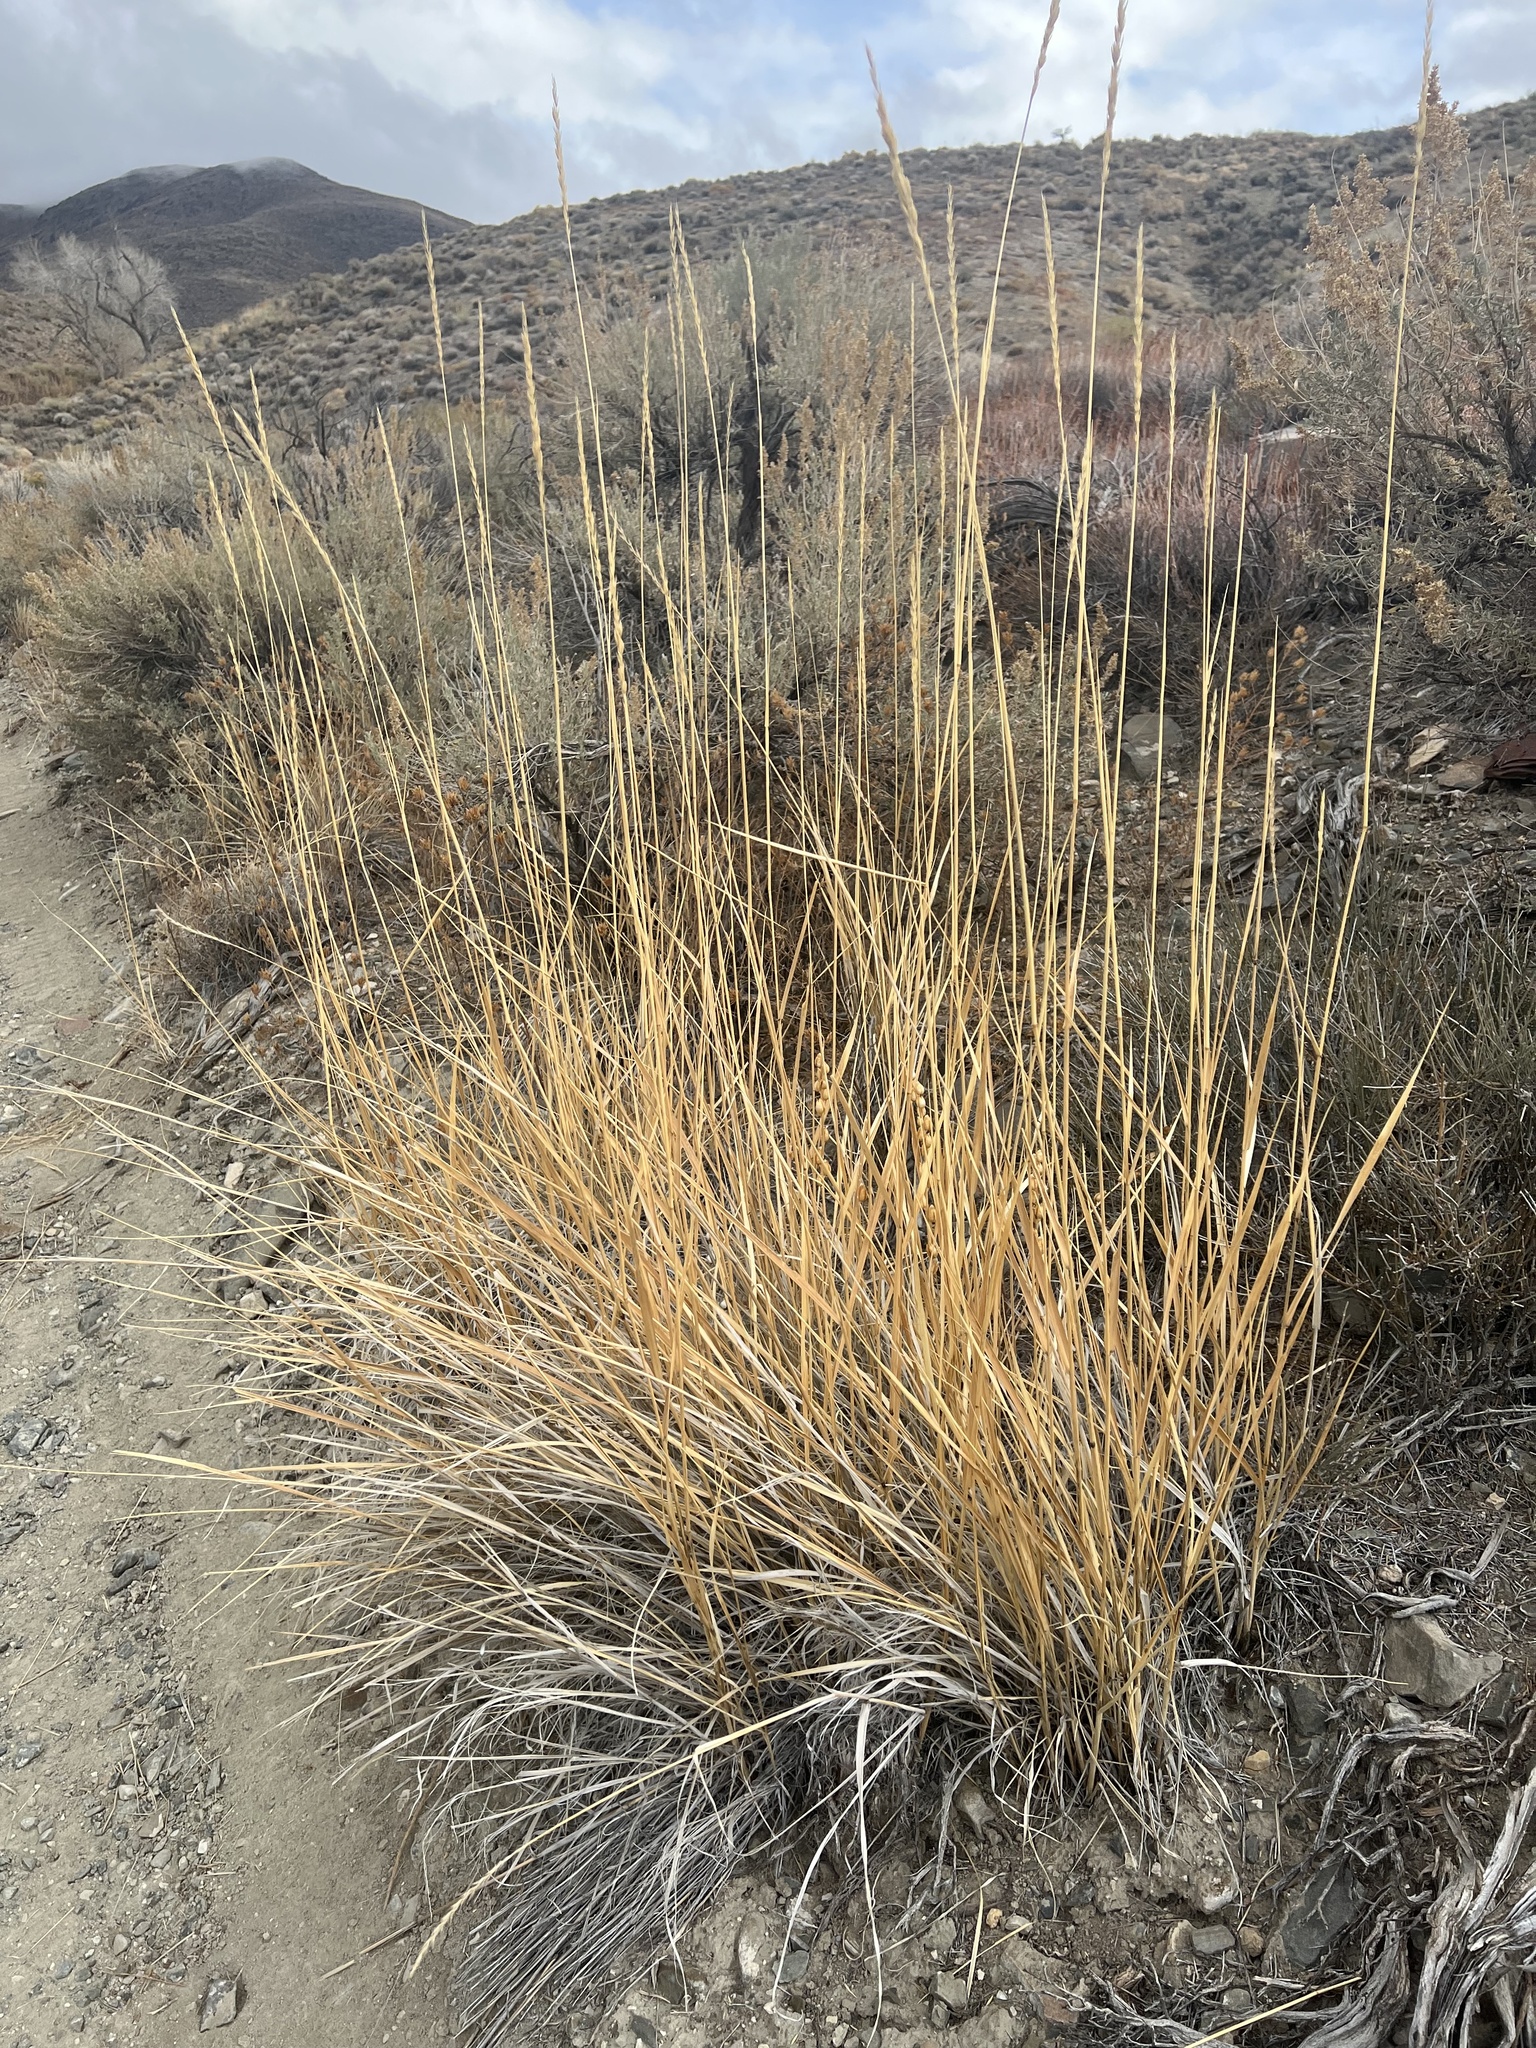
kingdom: Plantae
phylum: Tracheophyta
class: Liliopsida
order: Poales
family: Poaceae
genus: Leymus
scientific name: Leymus cinereus
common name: Basin wild rye
